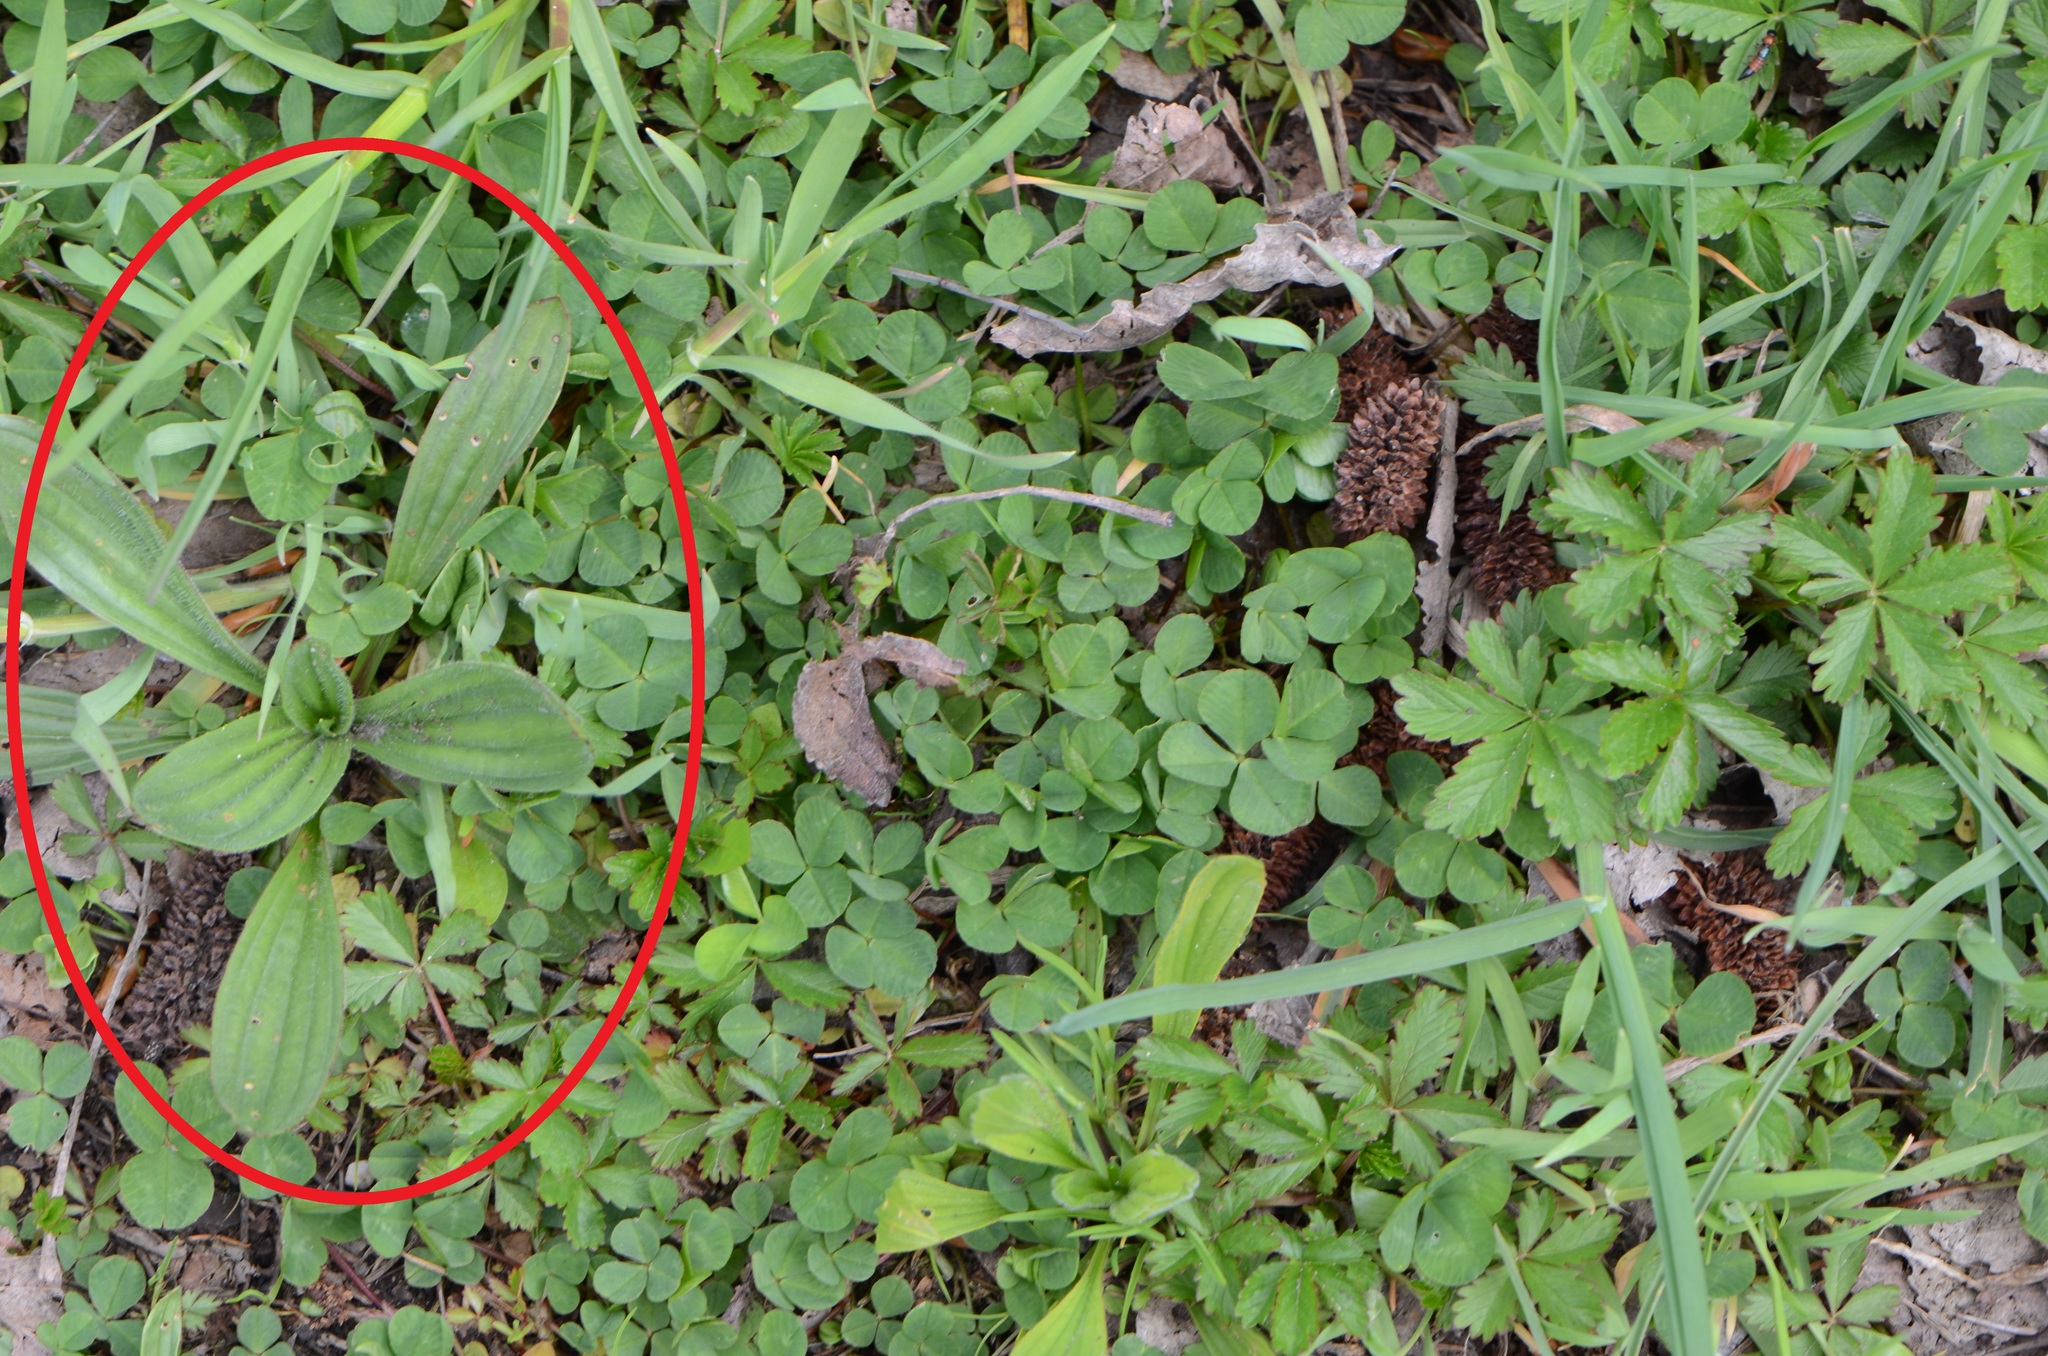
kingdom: Plantae
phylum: Tracheophyta
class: Magnoliopsida
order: Lamiales
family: Plantaginaceae
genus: Plantago
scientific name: Plantago lanceolata
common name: Ribwort plantain
